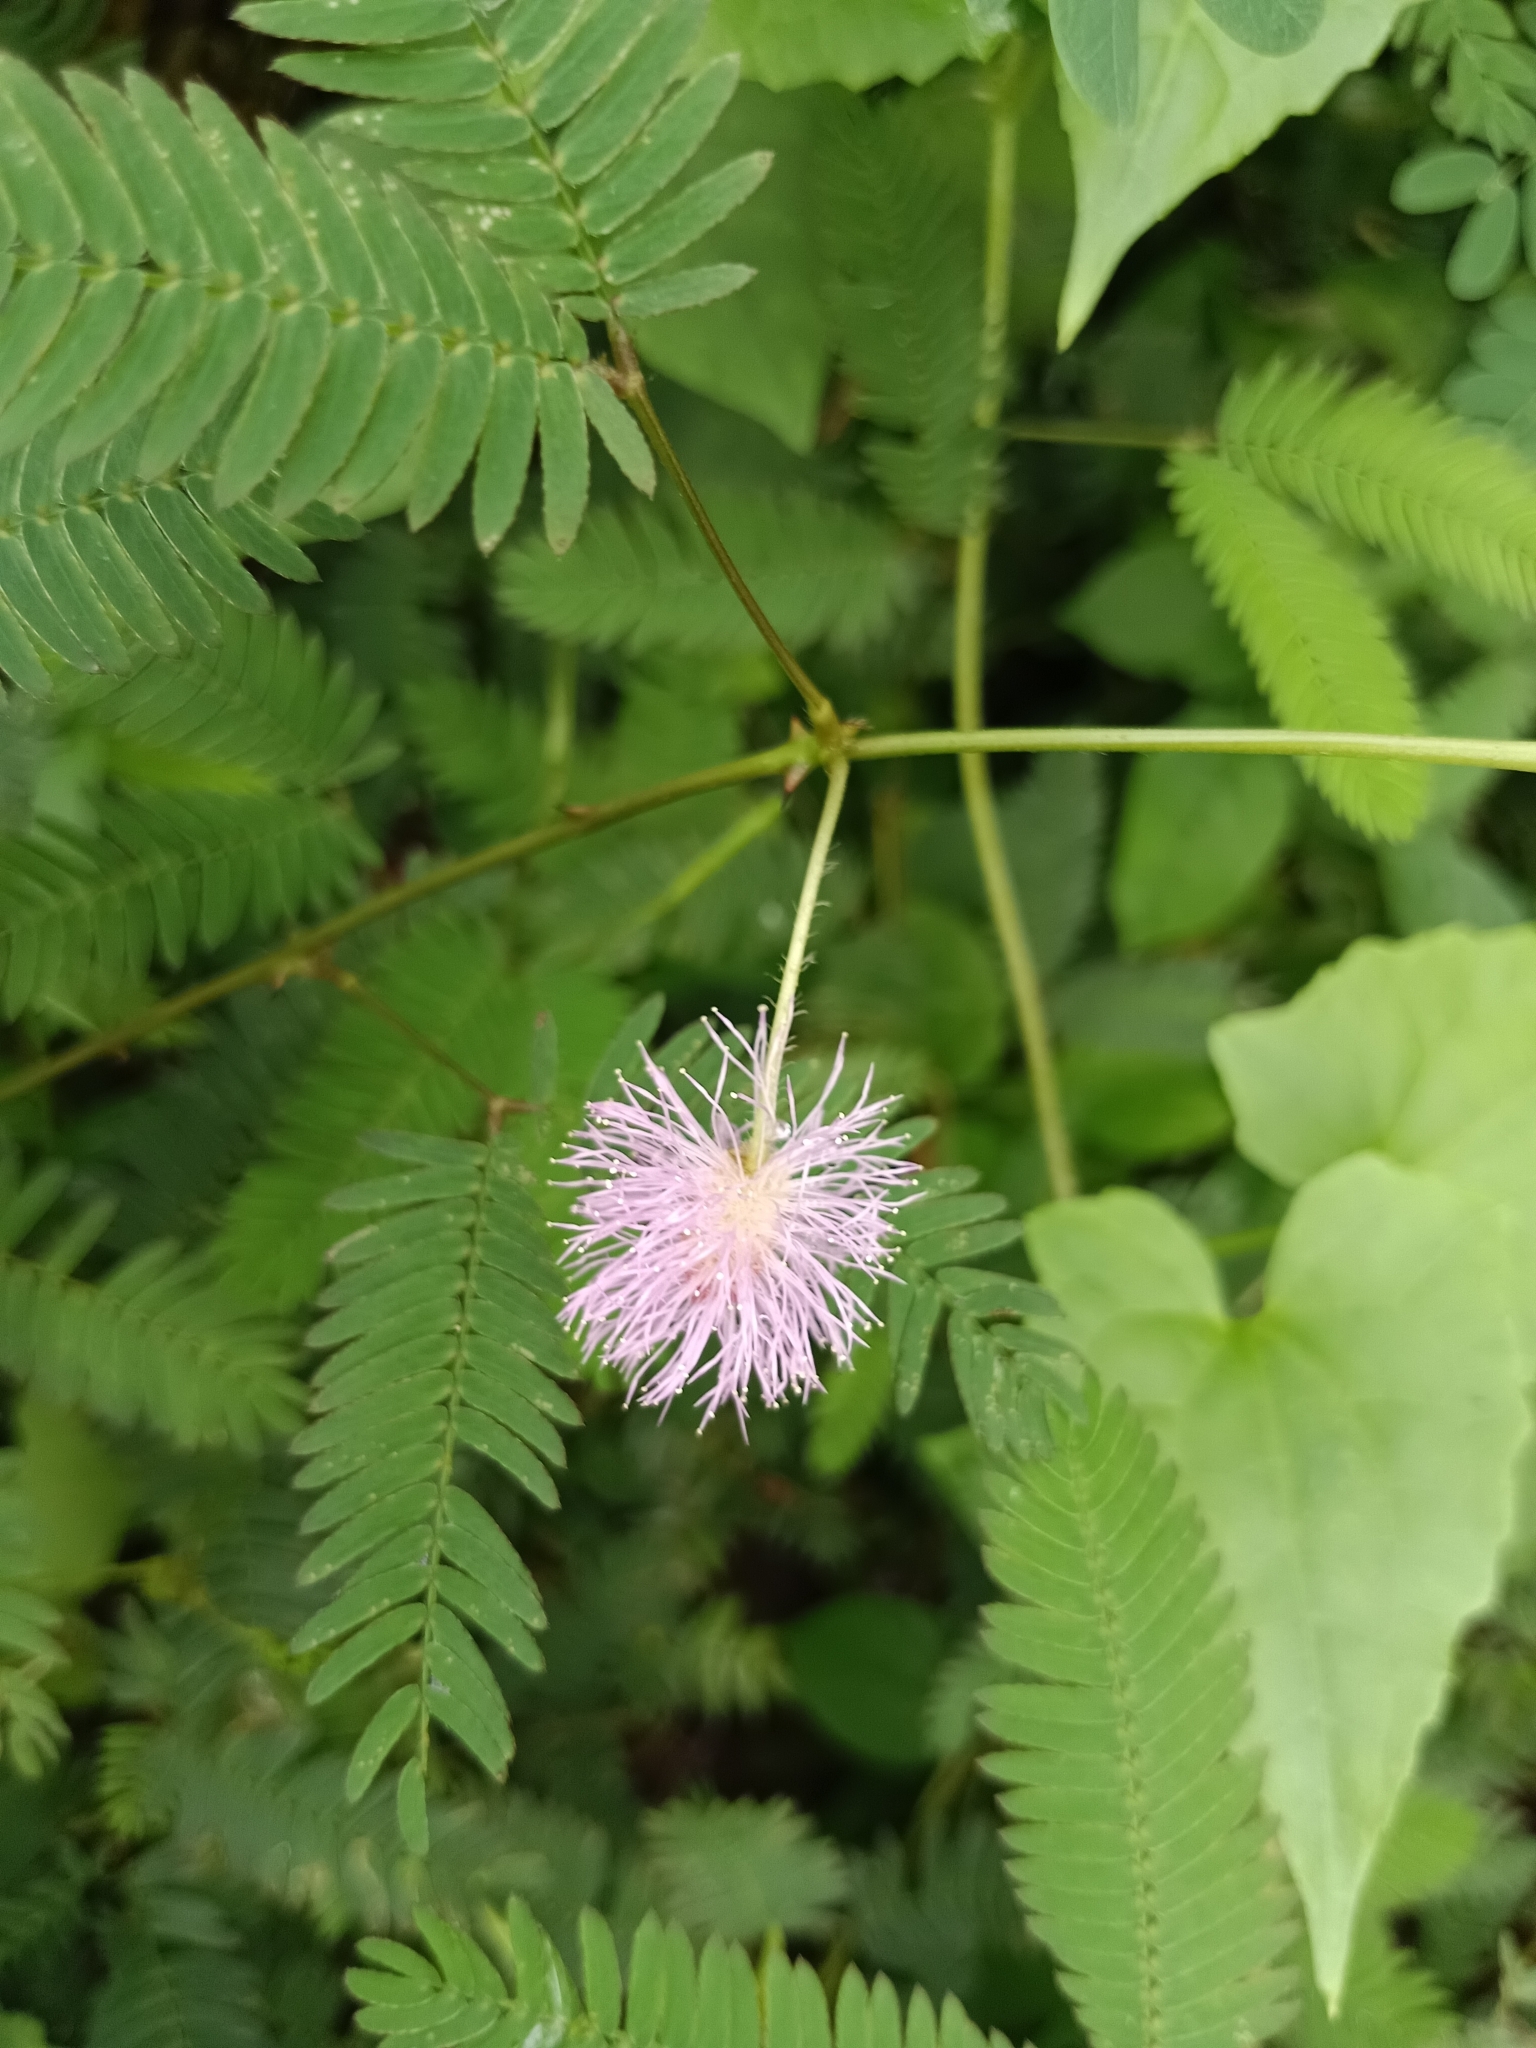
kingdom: Plantae
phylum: Tracheophyta
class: Magnoliopsida
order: Fabales
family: Fabaceae
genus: Mimosa
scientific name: Mimosa pudica
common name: Sensitive plant
